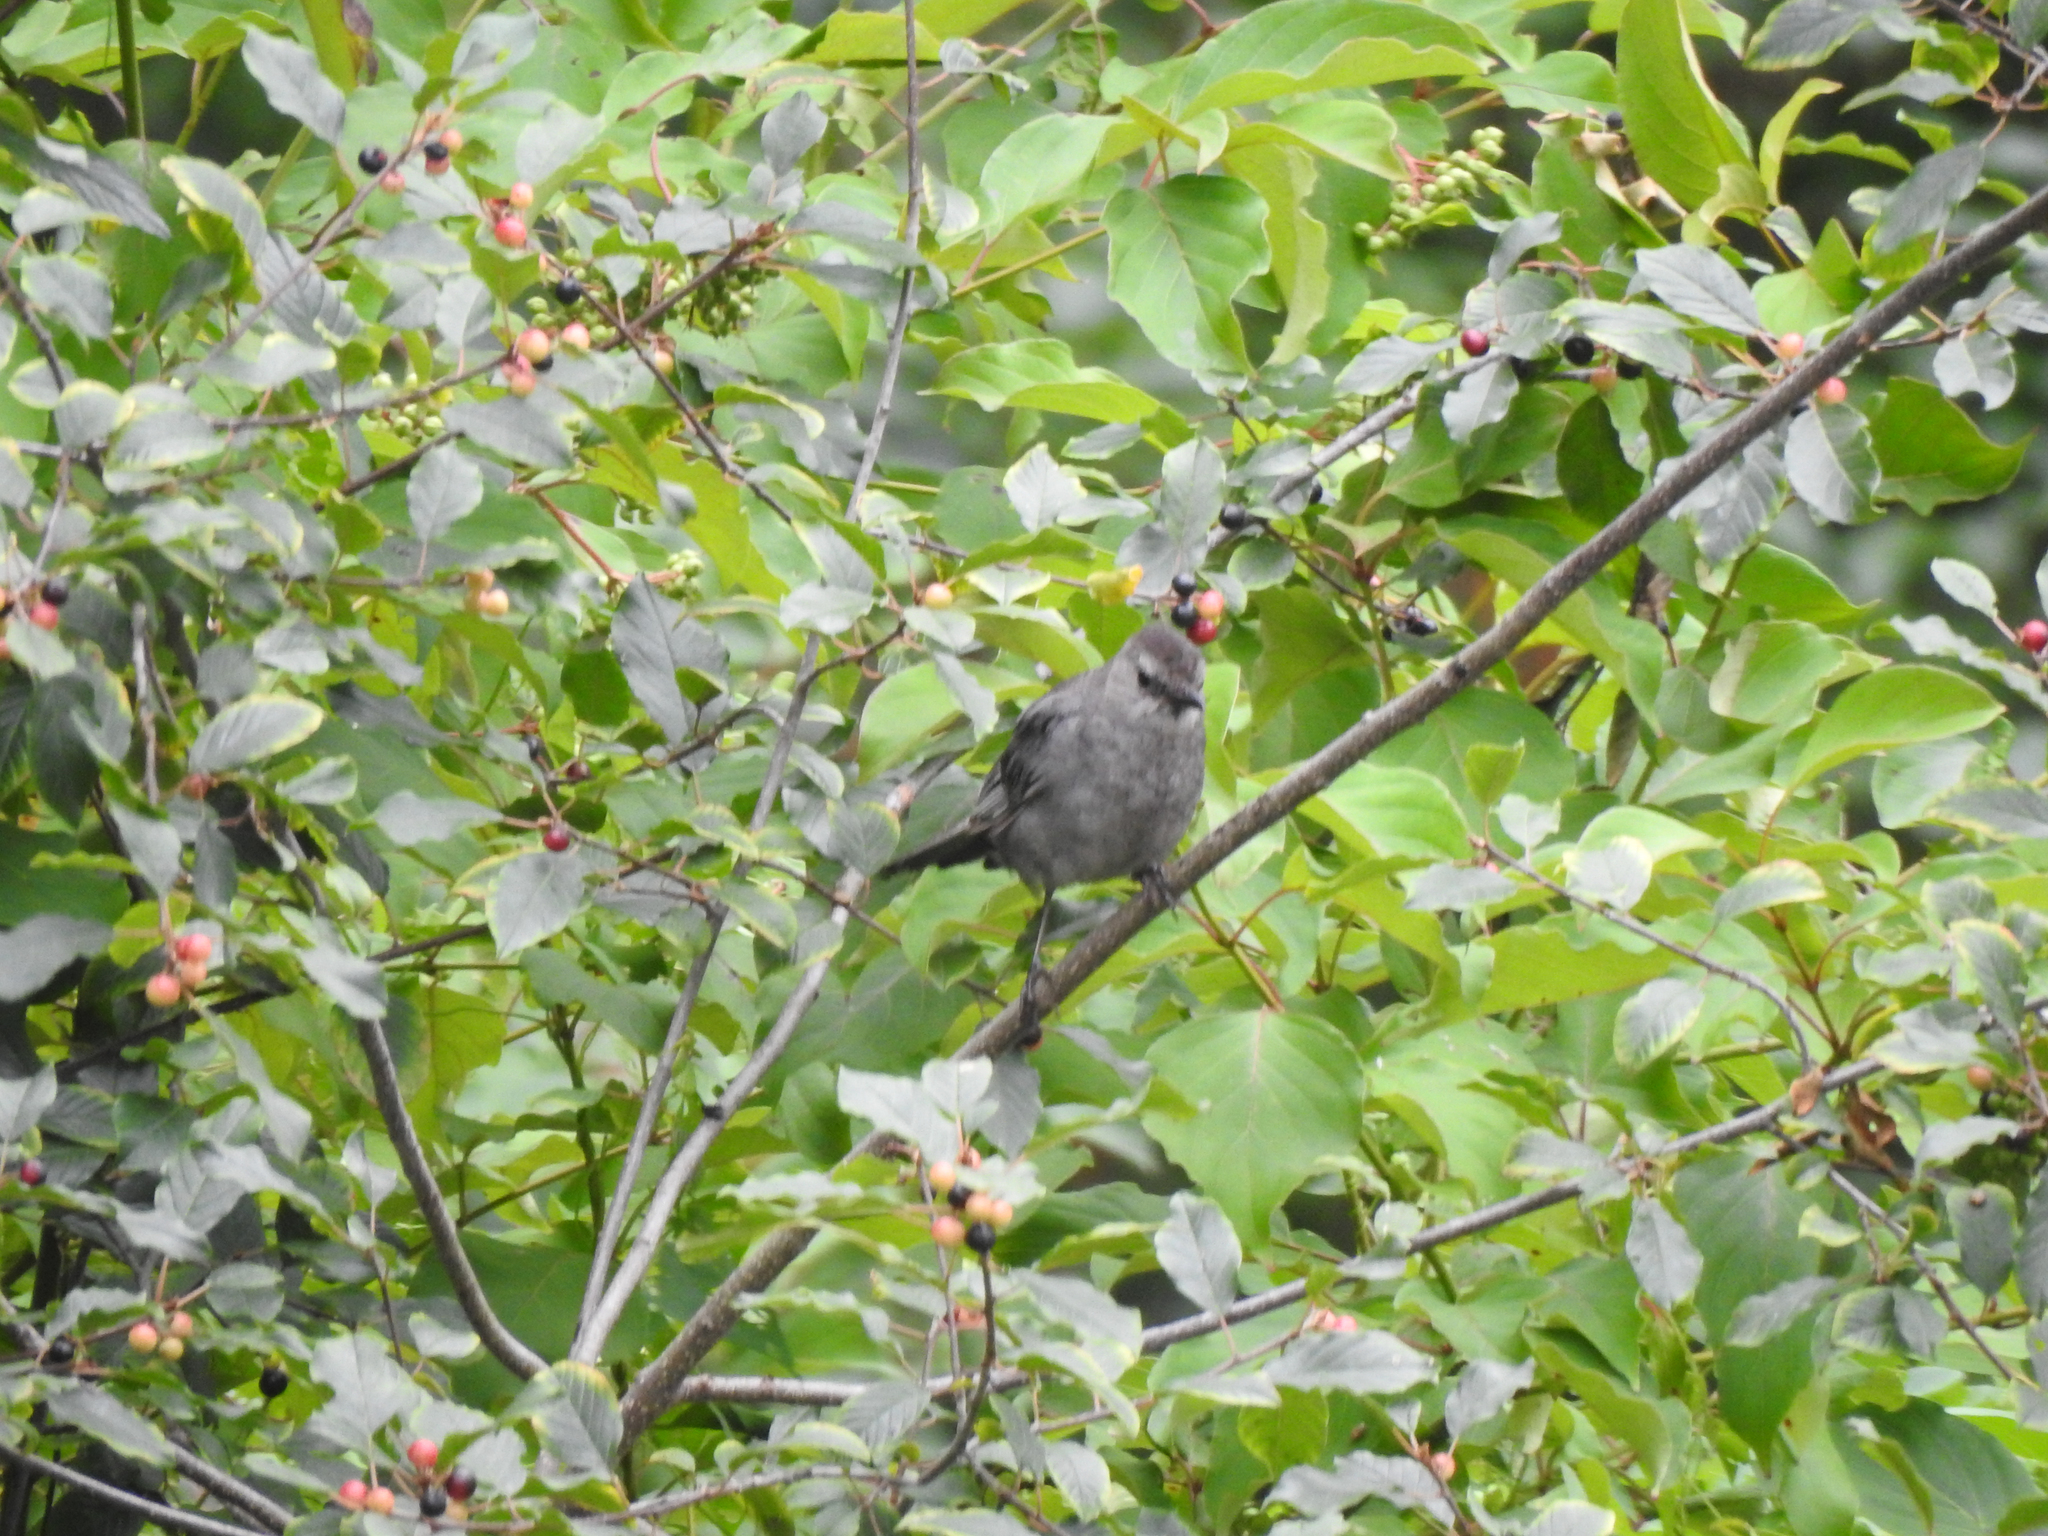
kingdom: Animalia
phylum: Chordata
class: Aves
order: Passeriformes
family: Mimidae
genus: Dumetella
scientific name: Dumetella carolinensis
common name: Gray catbird
